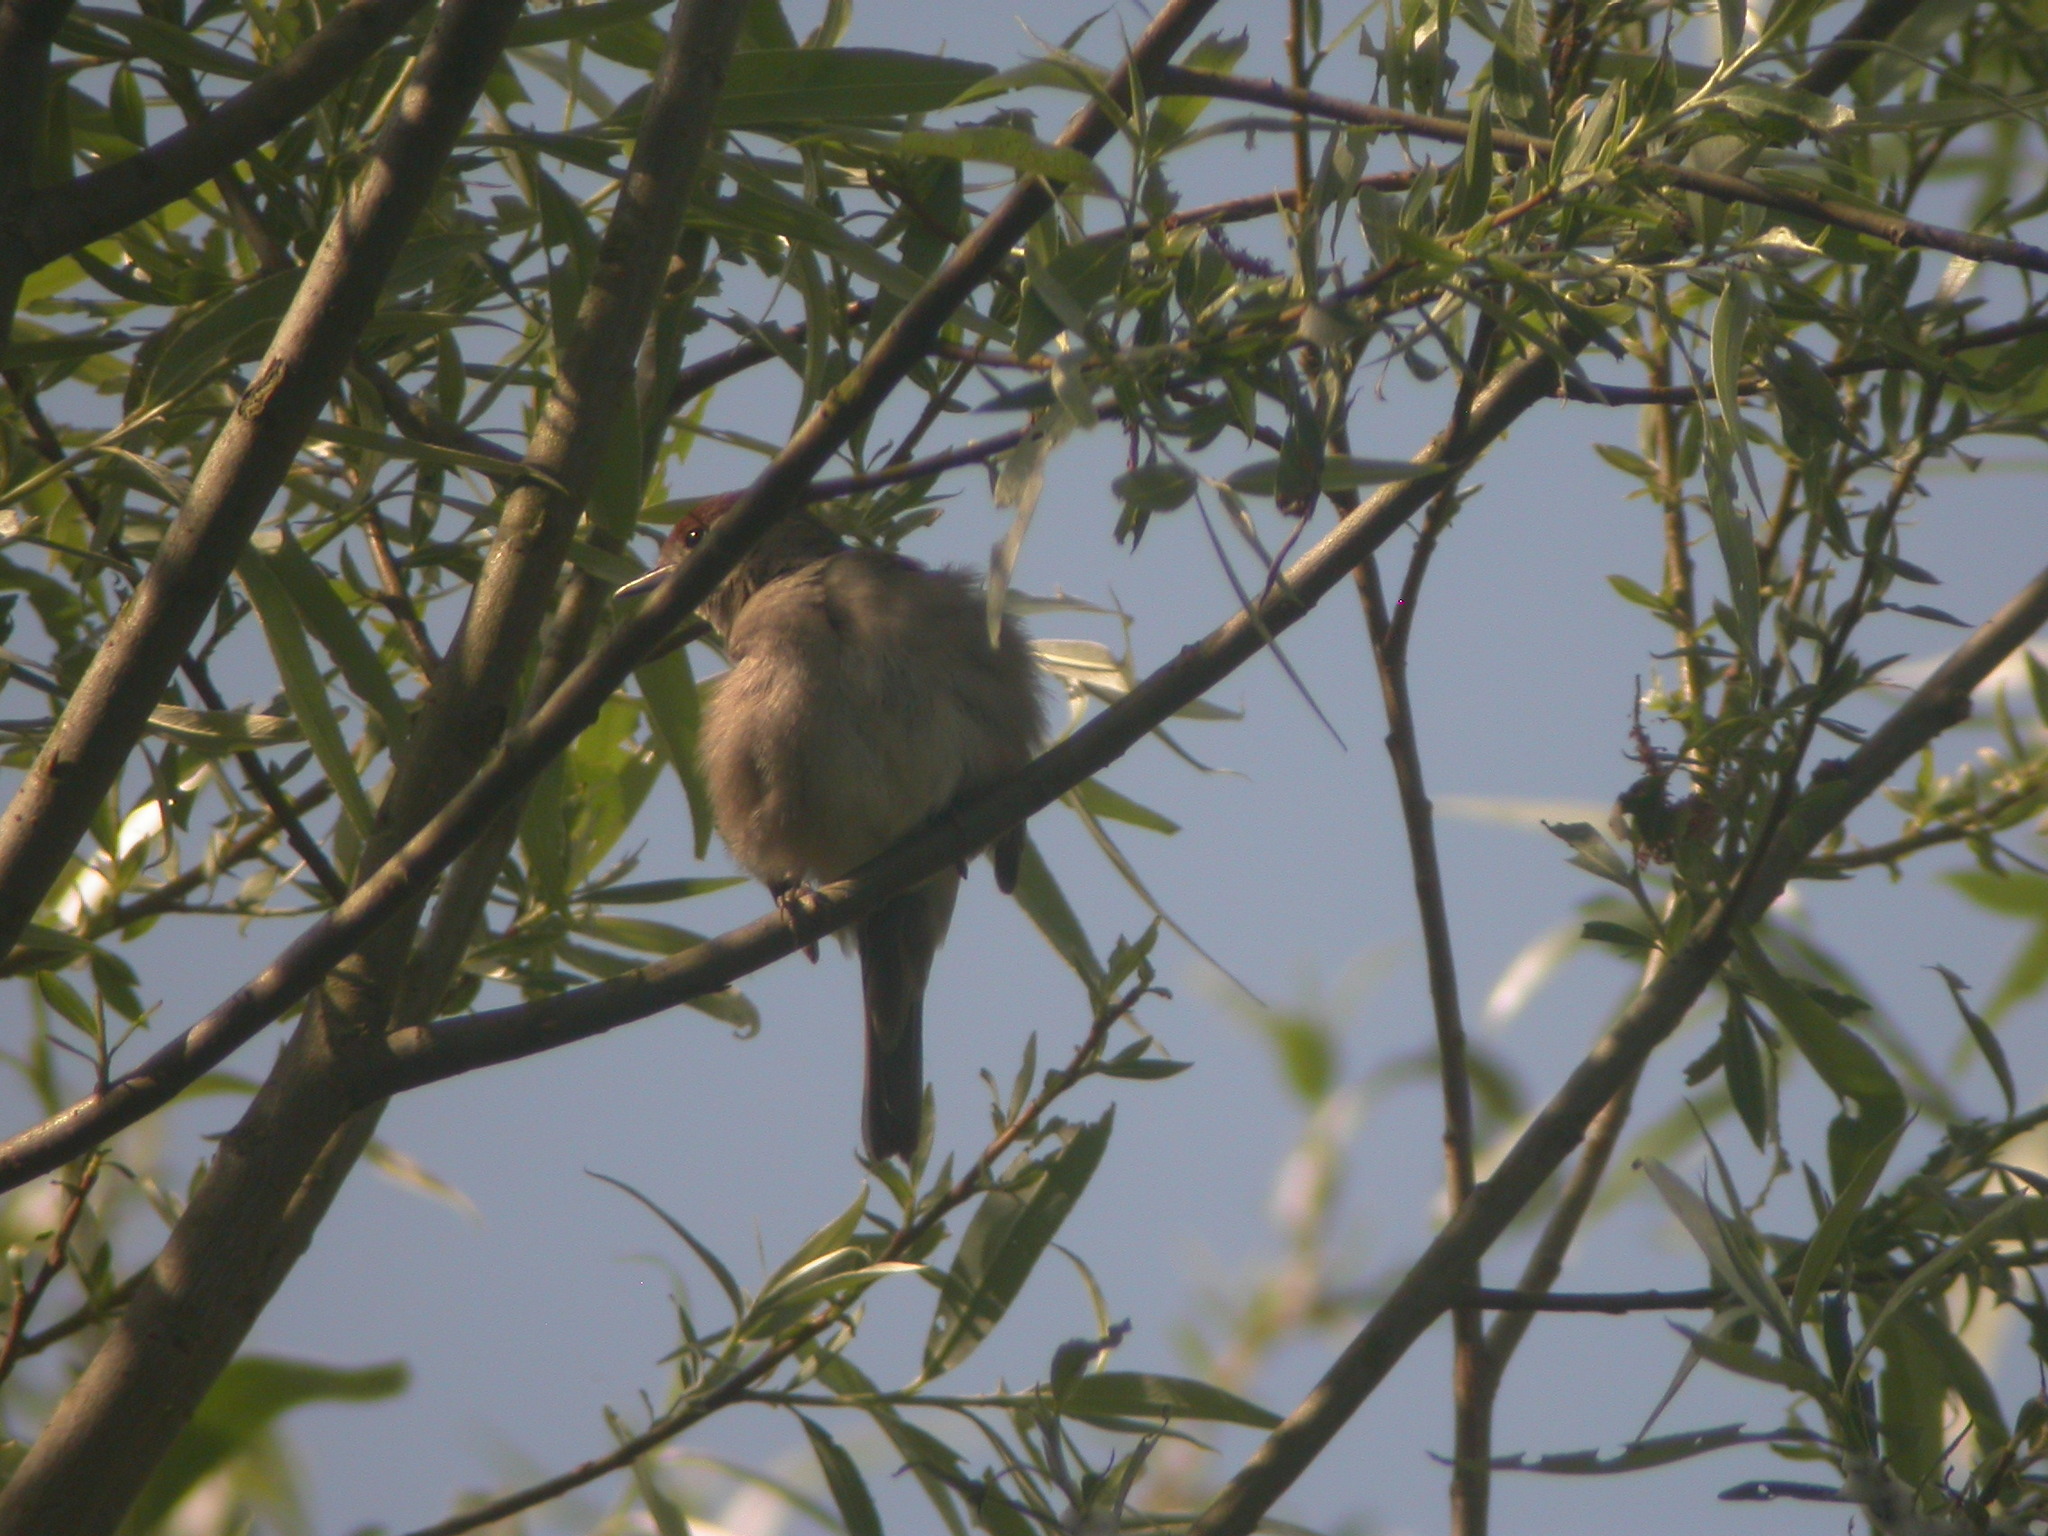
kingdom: Animalia
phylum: Chordata
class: Aves
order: Passeriformes
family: Sylviidae
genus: Sylvia
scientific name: Sylvia atricapilla
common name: Eurasian blackcap
